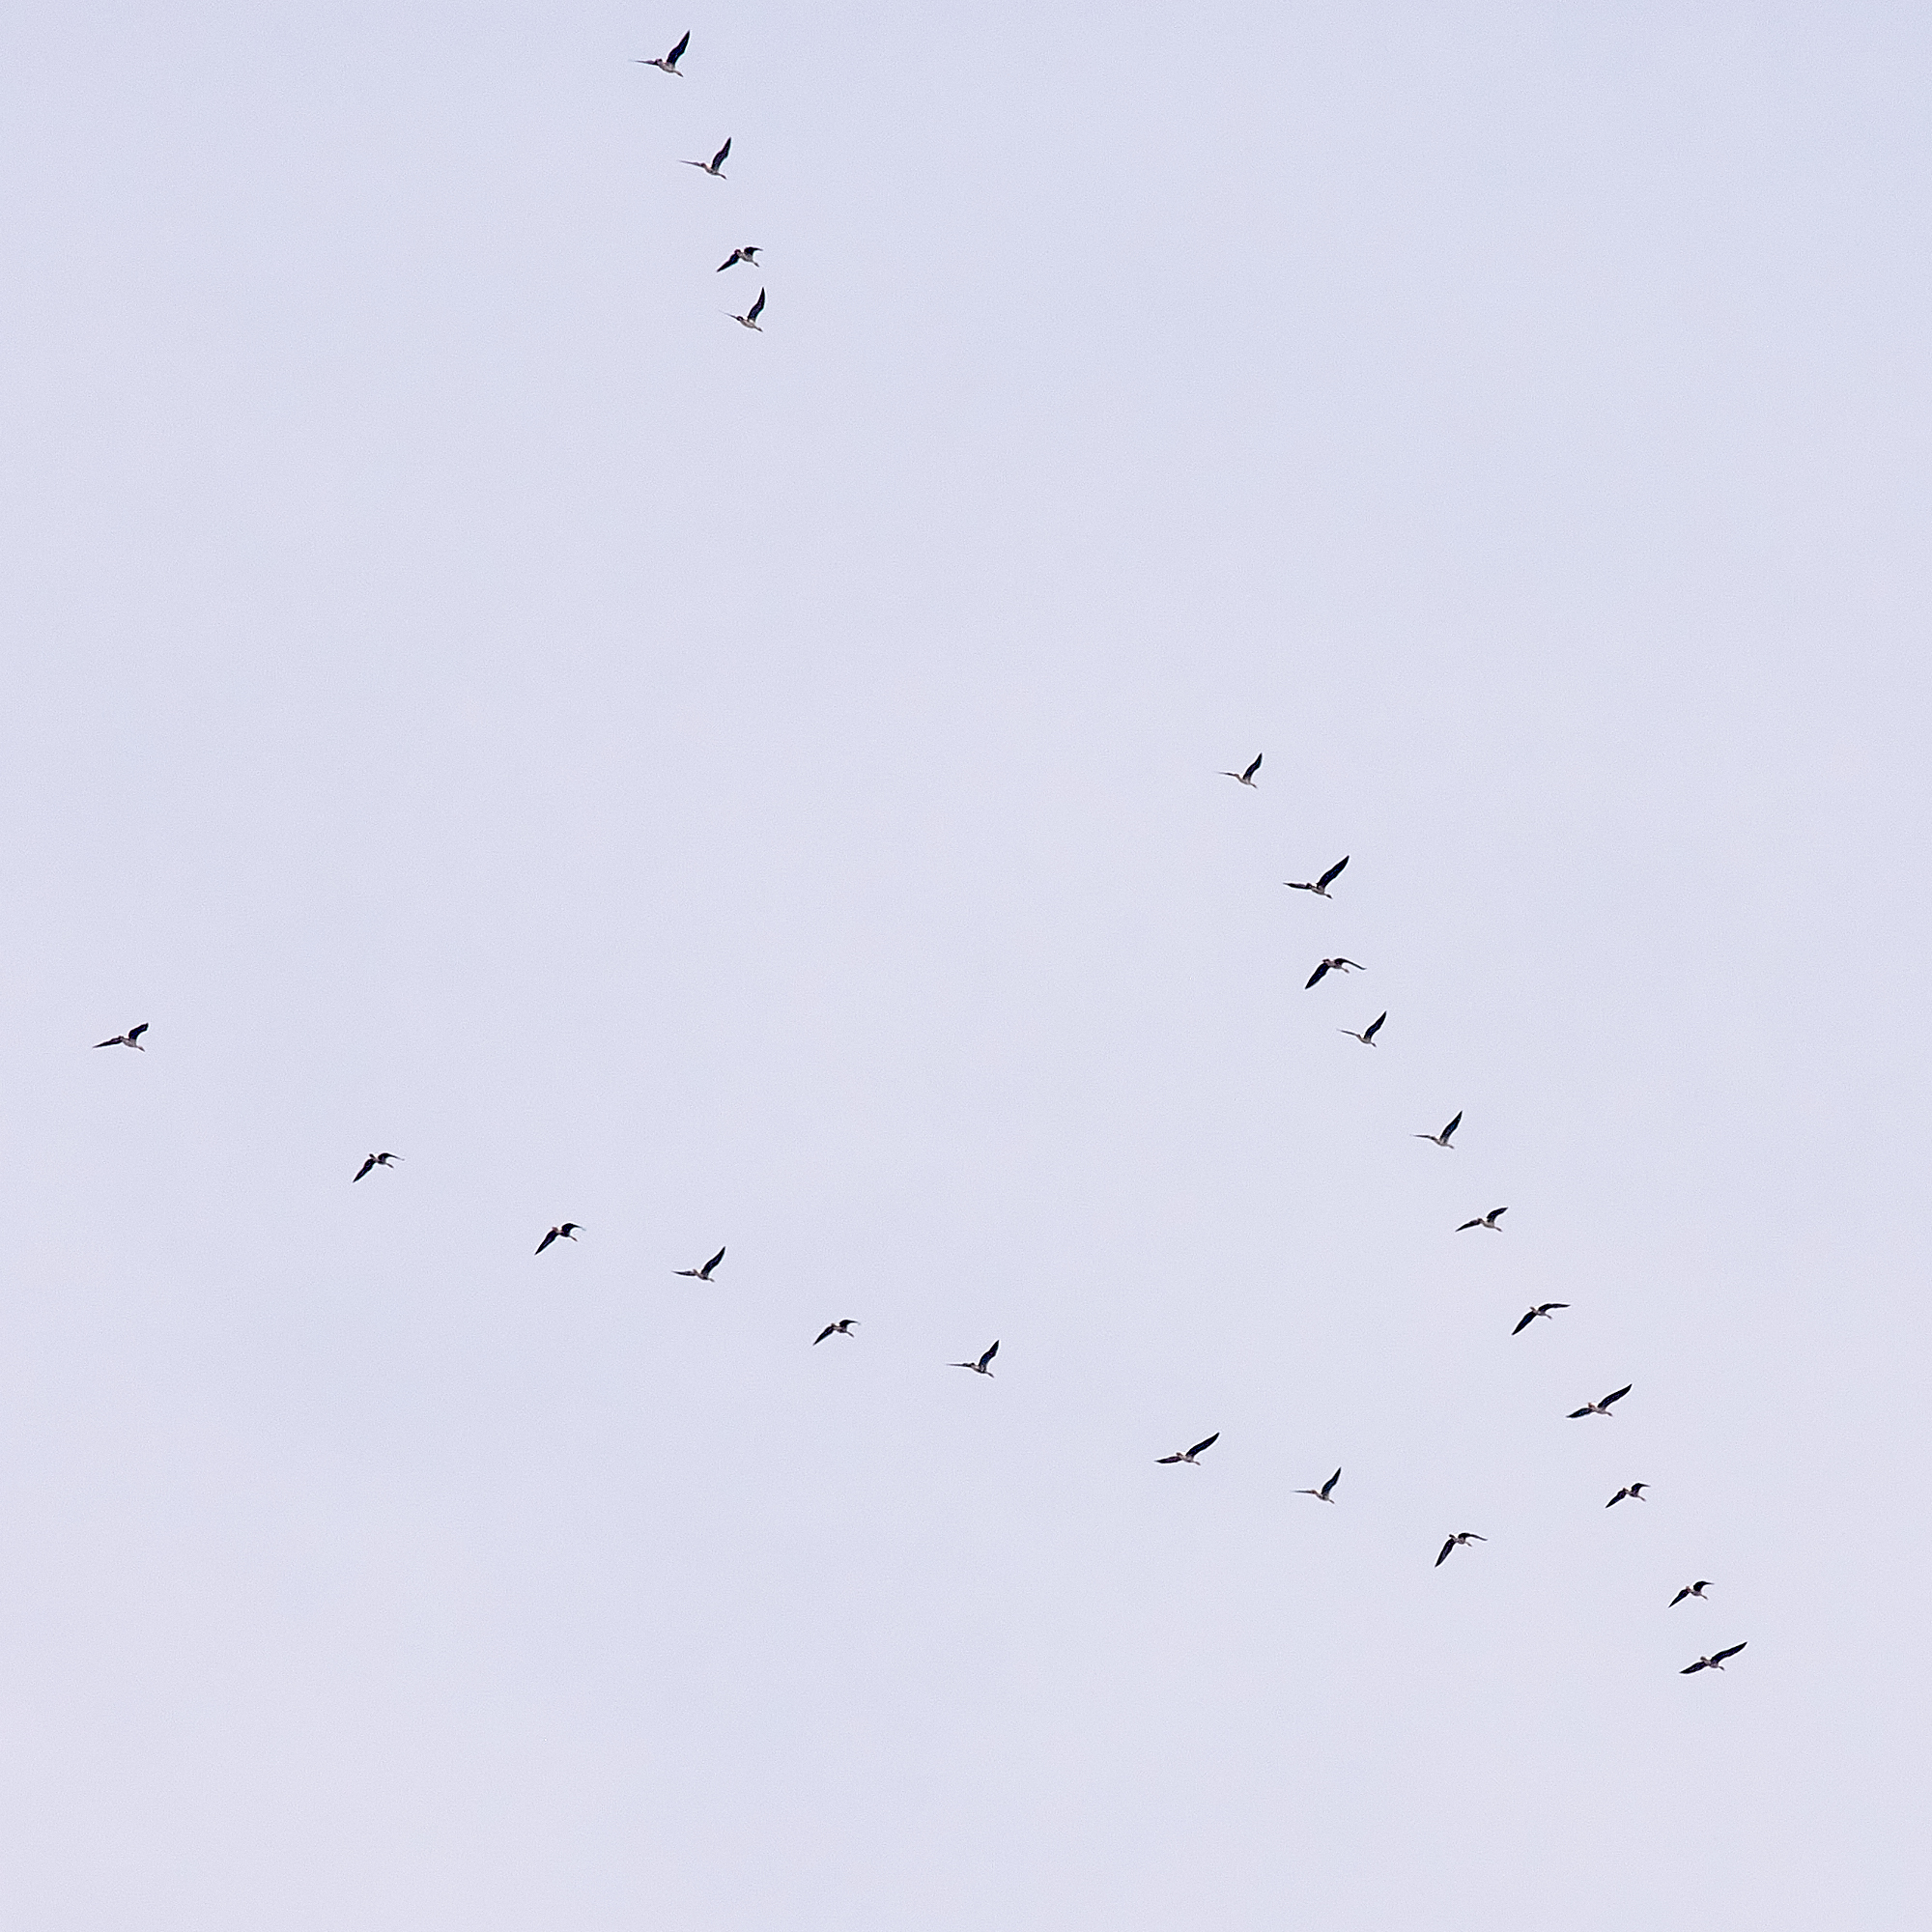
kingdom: Animalia
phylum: Chordata
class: Aves
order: Anseriformes
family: Anatidae
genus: Anser
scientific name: Anser albifrons
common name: Greater white-fronted goose
